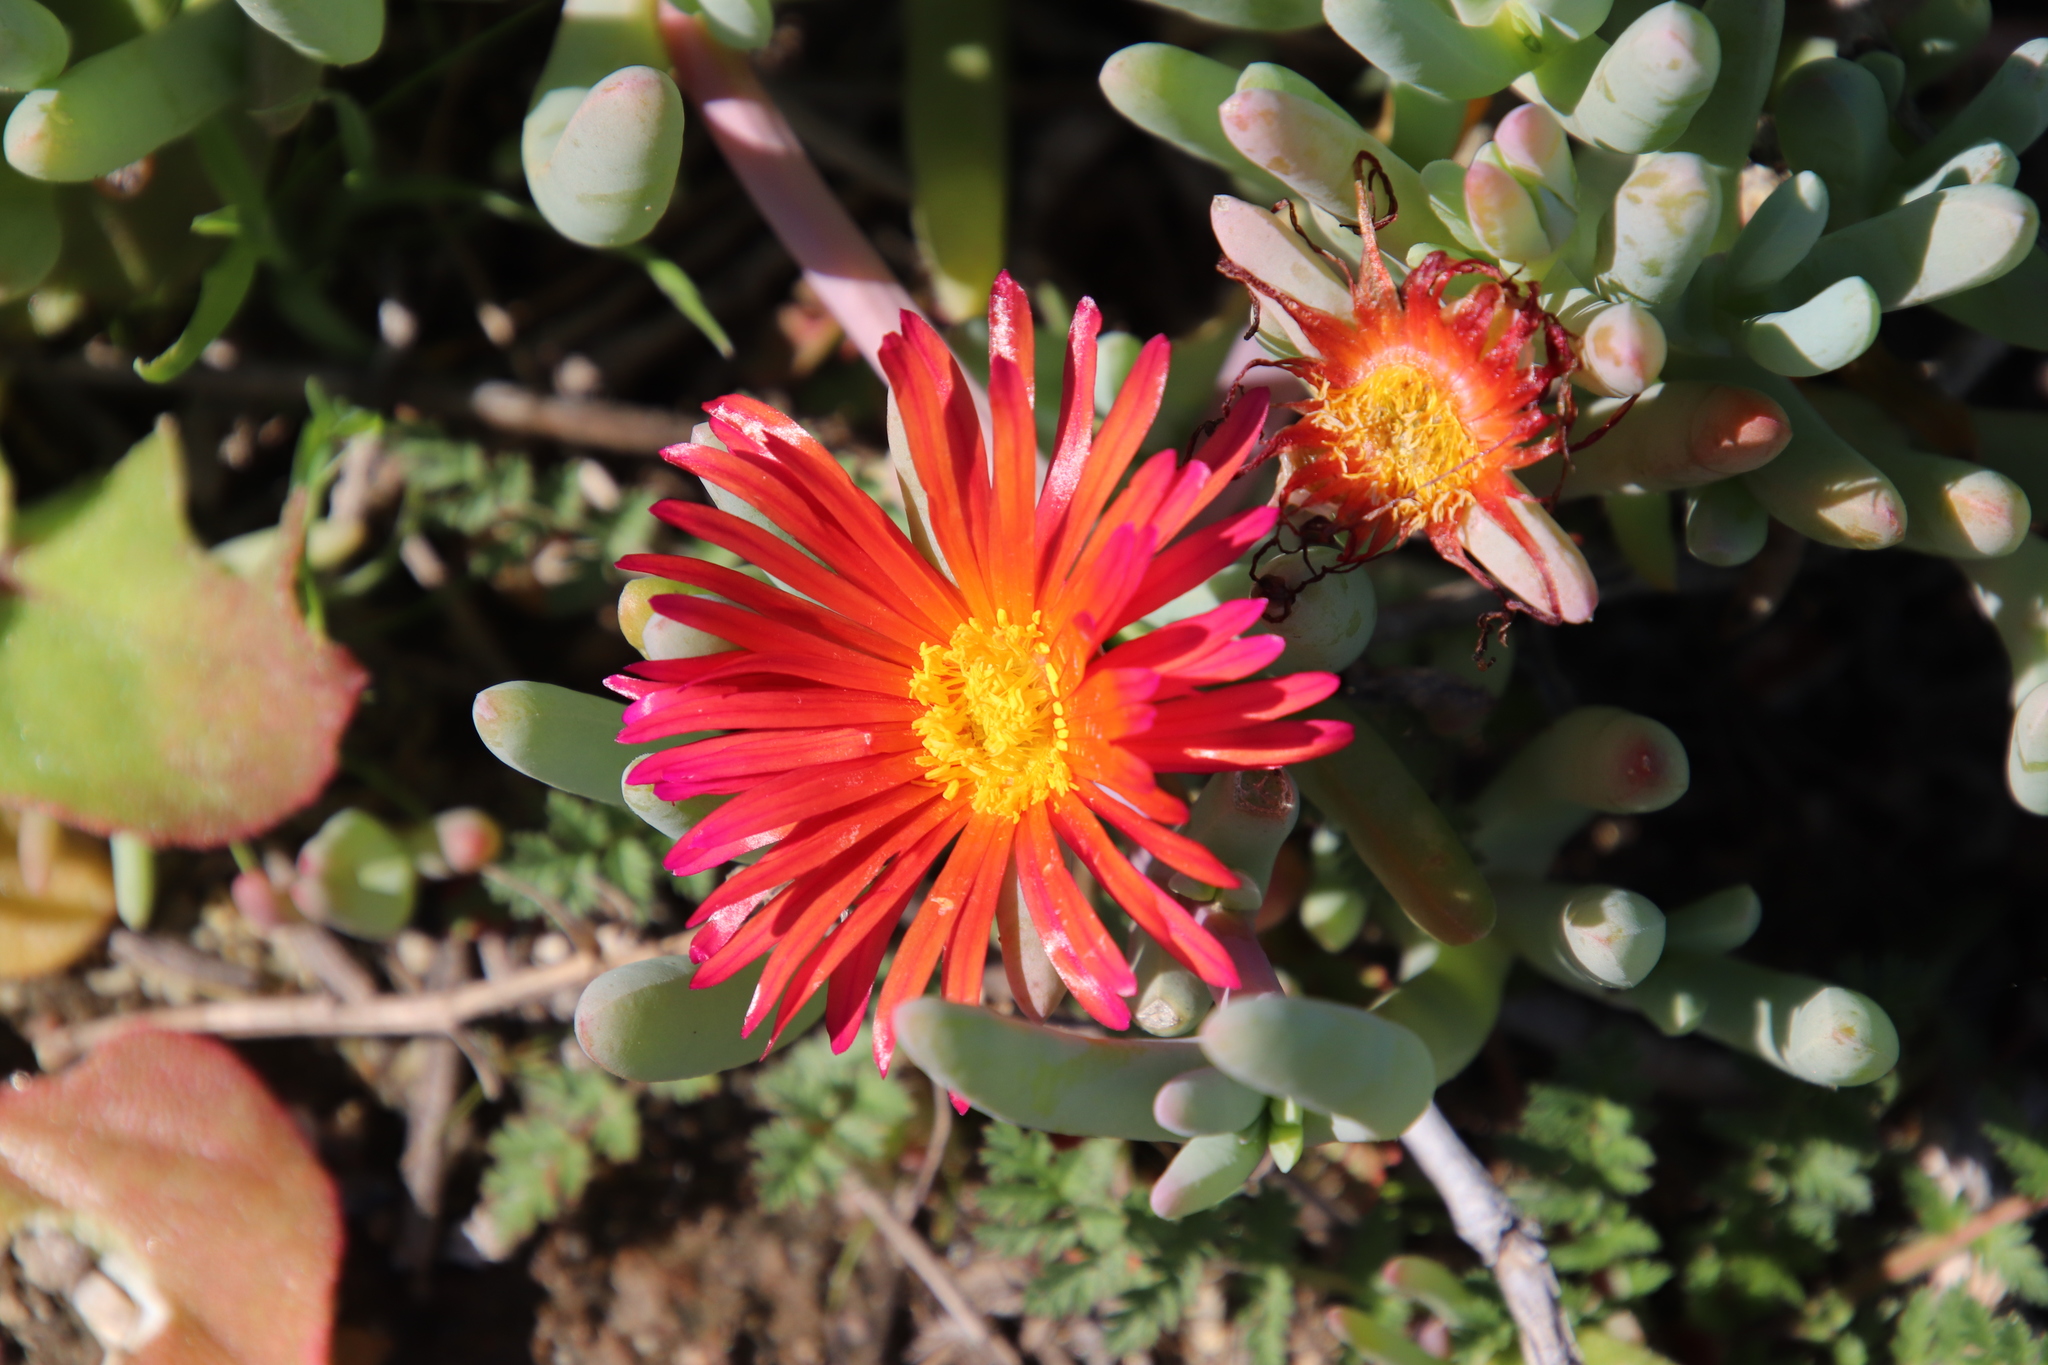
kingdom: Plantae
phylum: Tracheophyta
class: Magnoliopsida
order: Caryophyllales
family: Aizoaceae
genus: Malephora
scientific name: Malephora crocea
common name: Coppery mesemb
